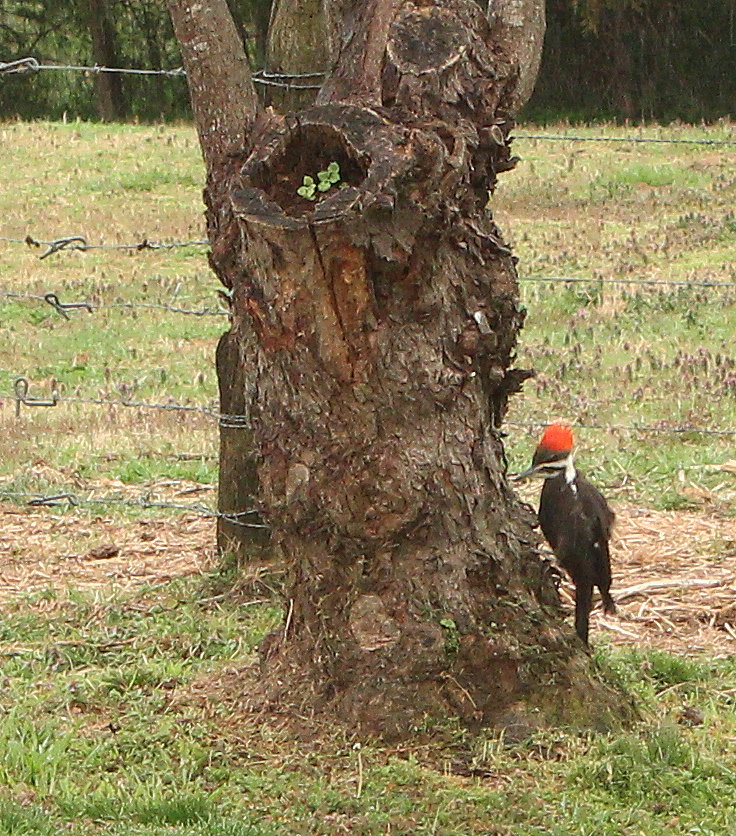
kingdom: Animalia
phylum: Chordata
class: Aves
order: Piciformes
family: Picidae
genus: Dryocopus
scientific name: Dryocopus pileatus
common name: Pileated woodpecker
